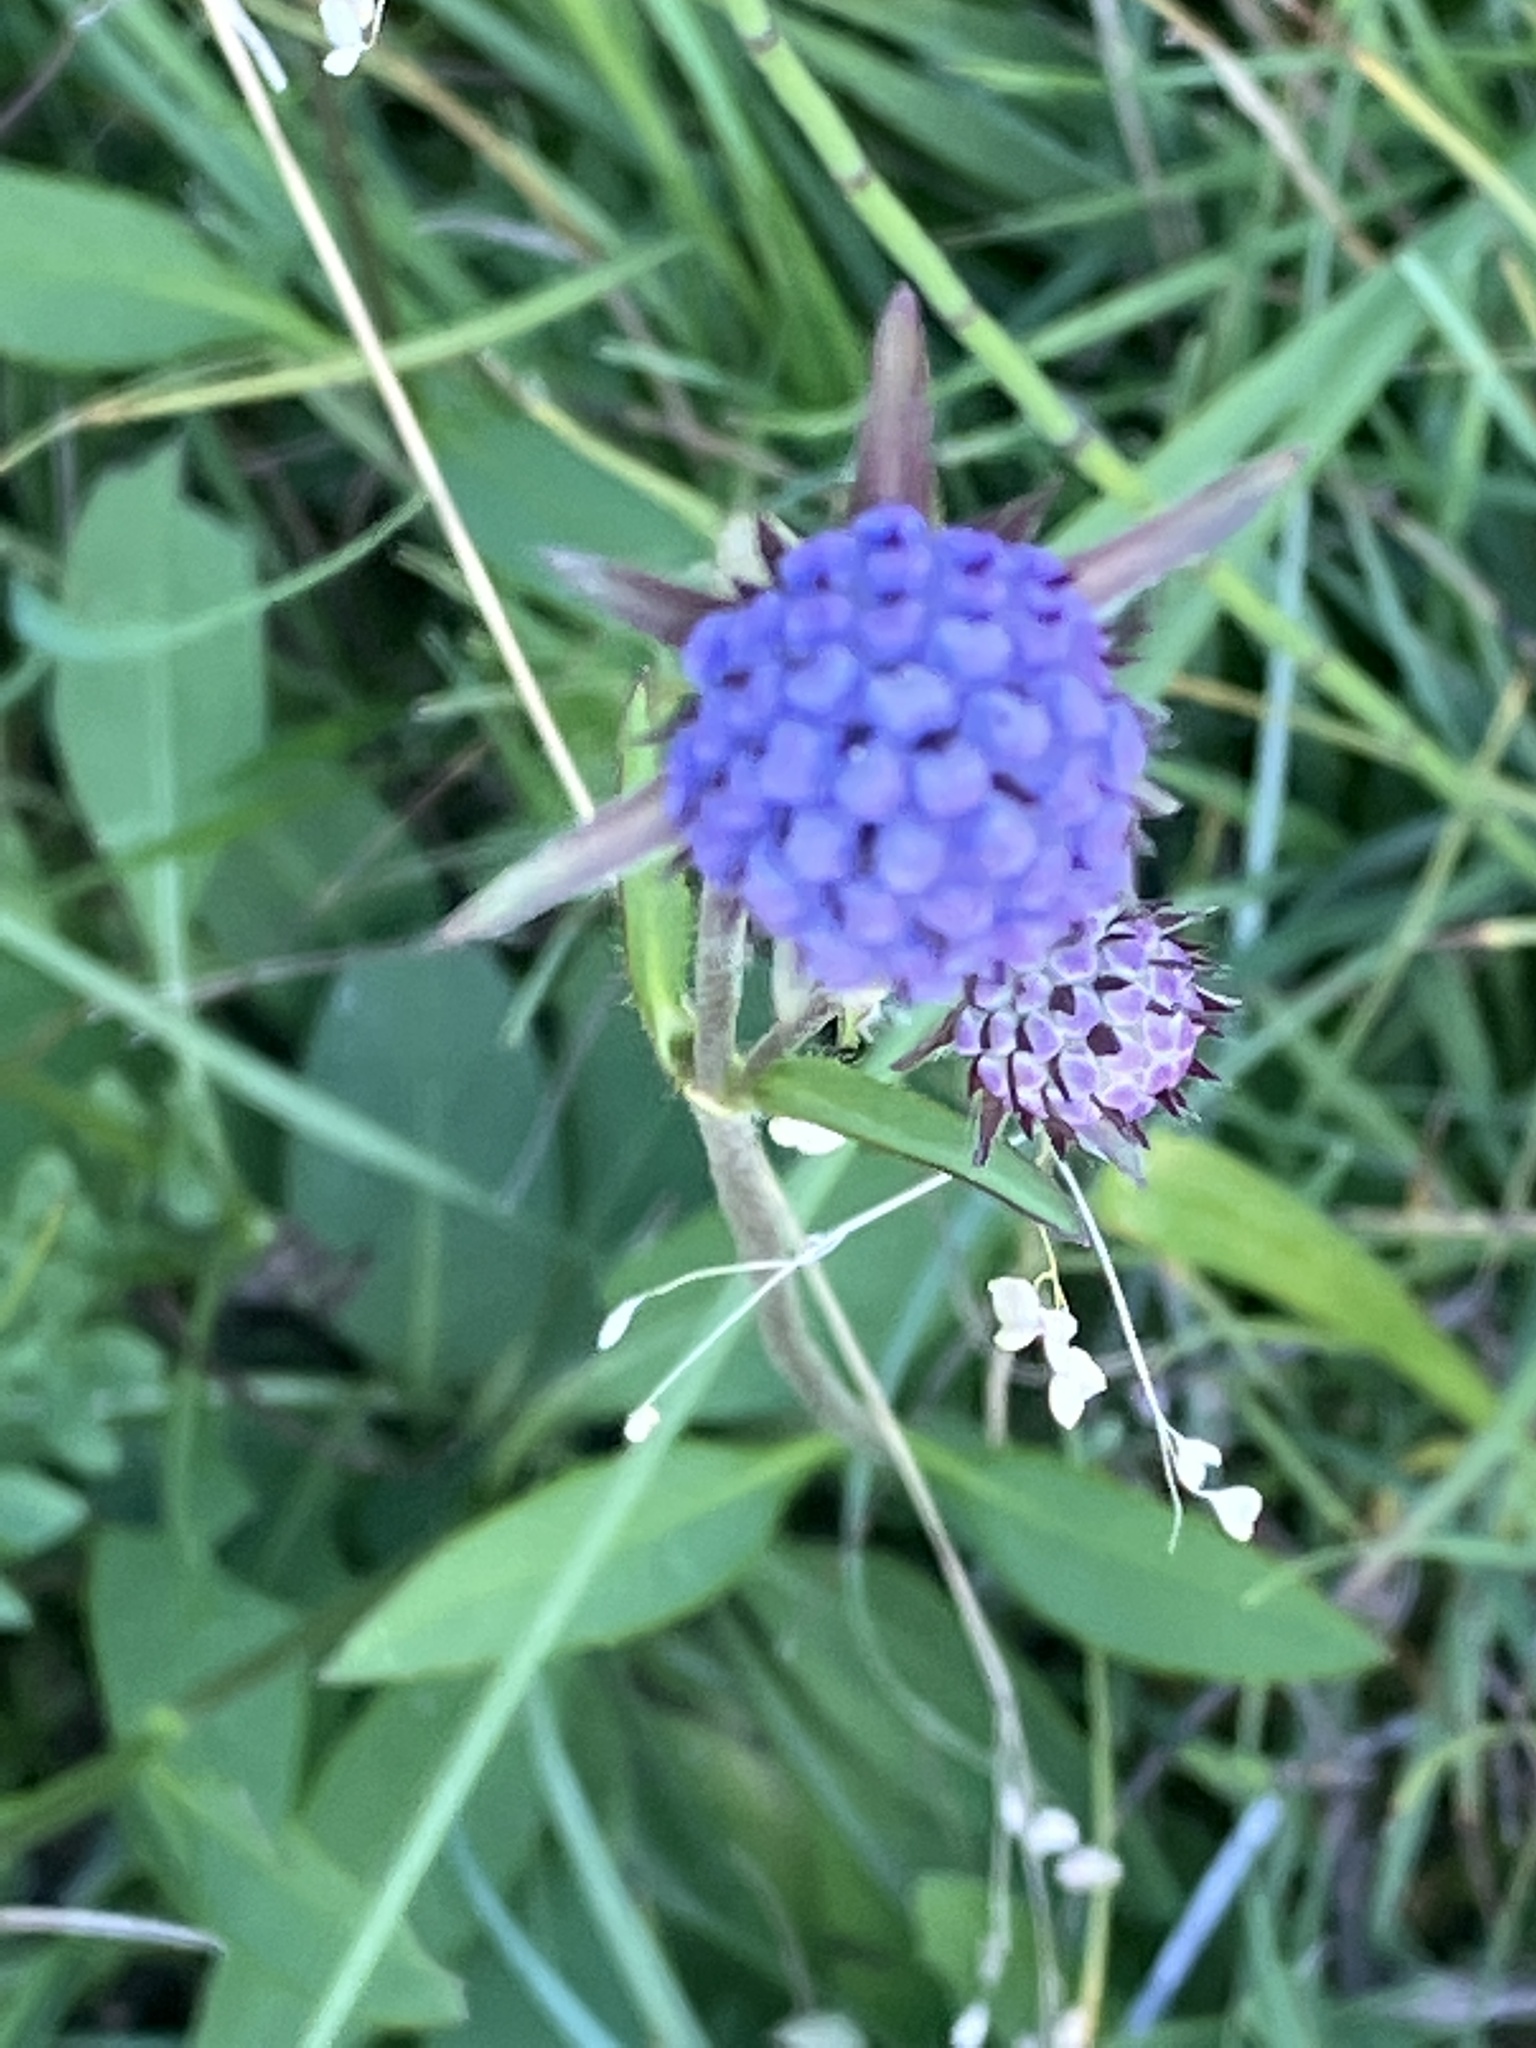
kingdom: Plantae
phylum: Tracheophyta
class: Magnoliopsida
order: Dipsacales
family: Caprifoliaceae
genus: Succisa
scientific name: Succisa pratensis
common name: Devil's-bit
